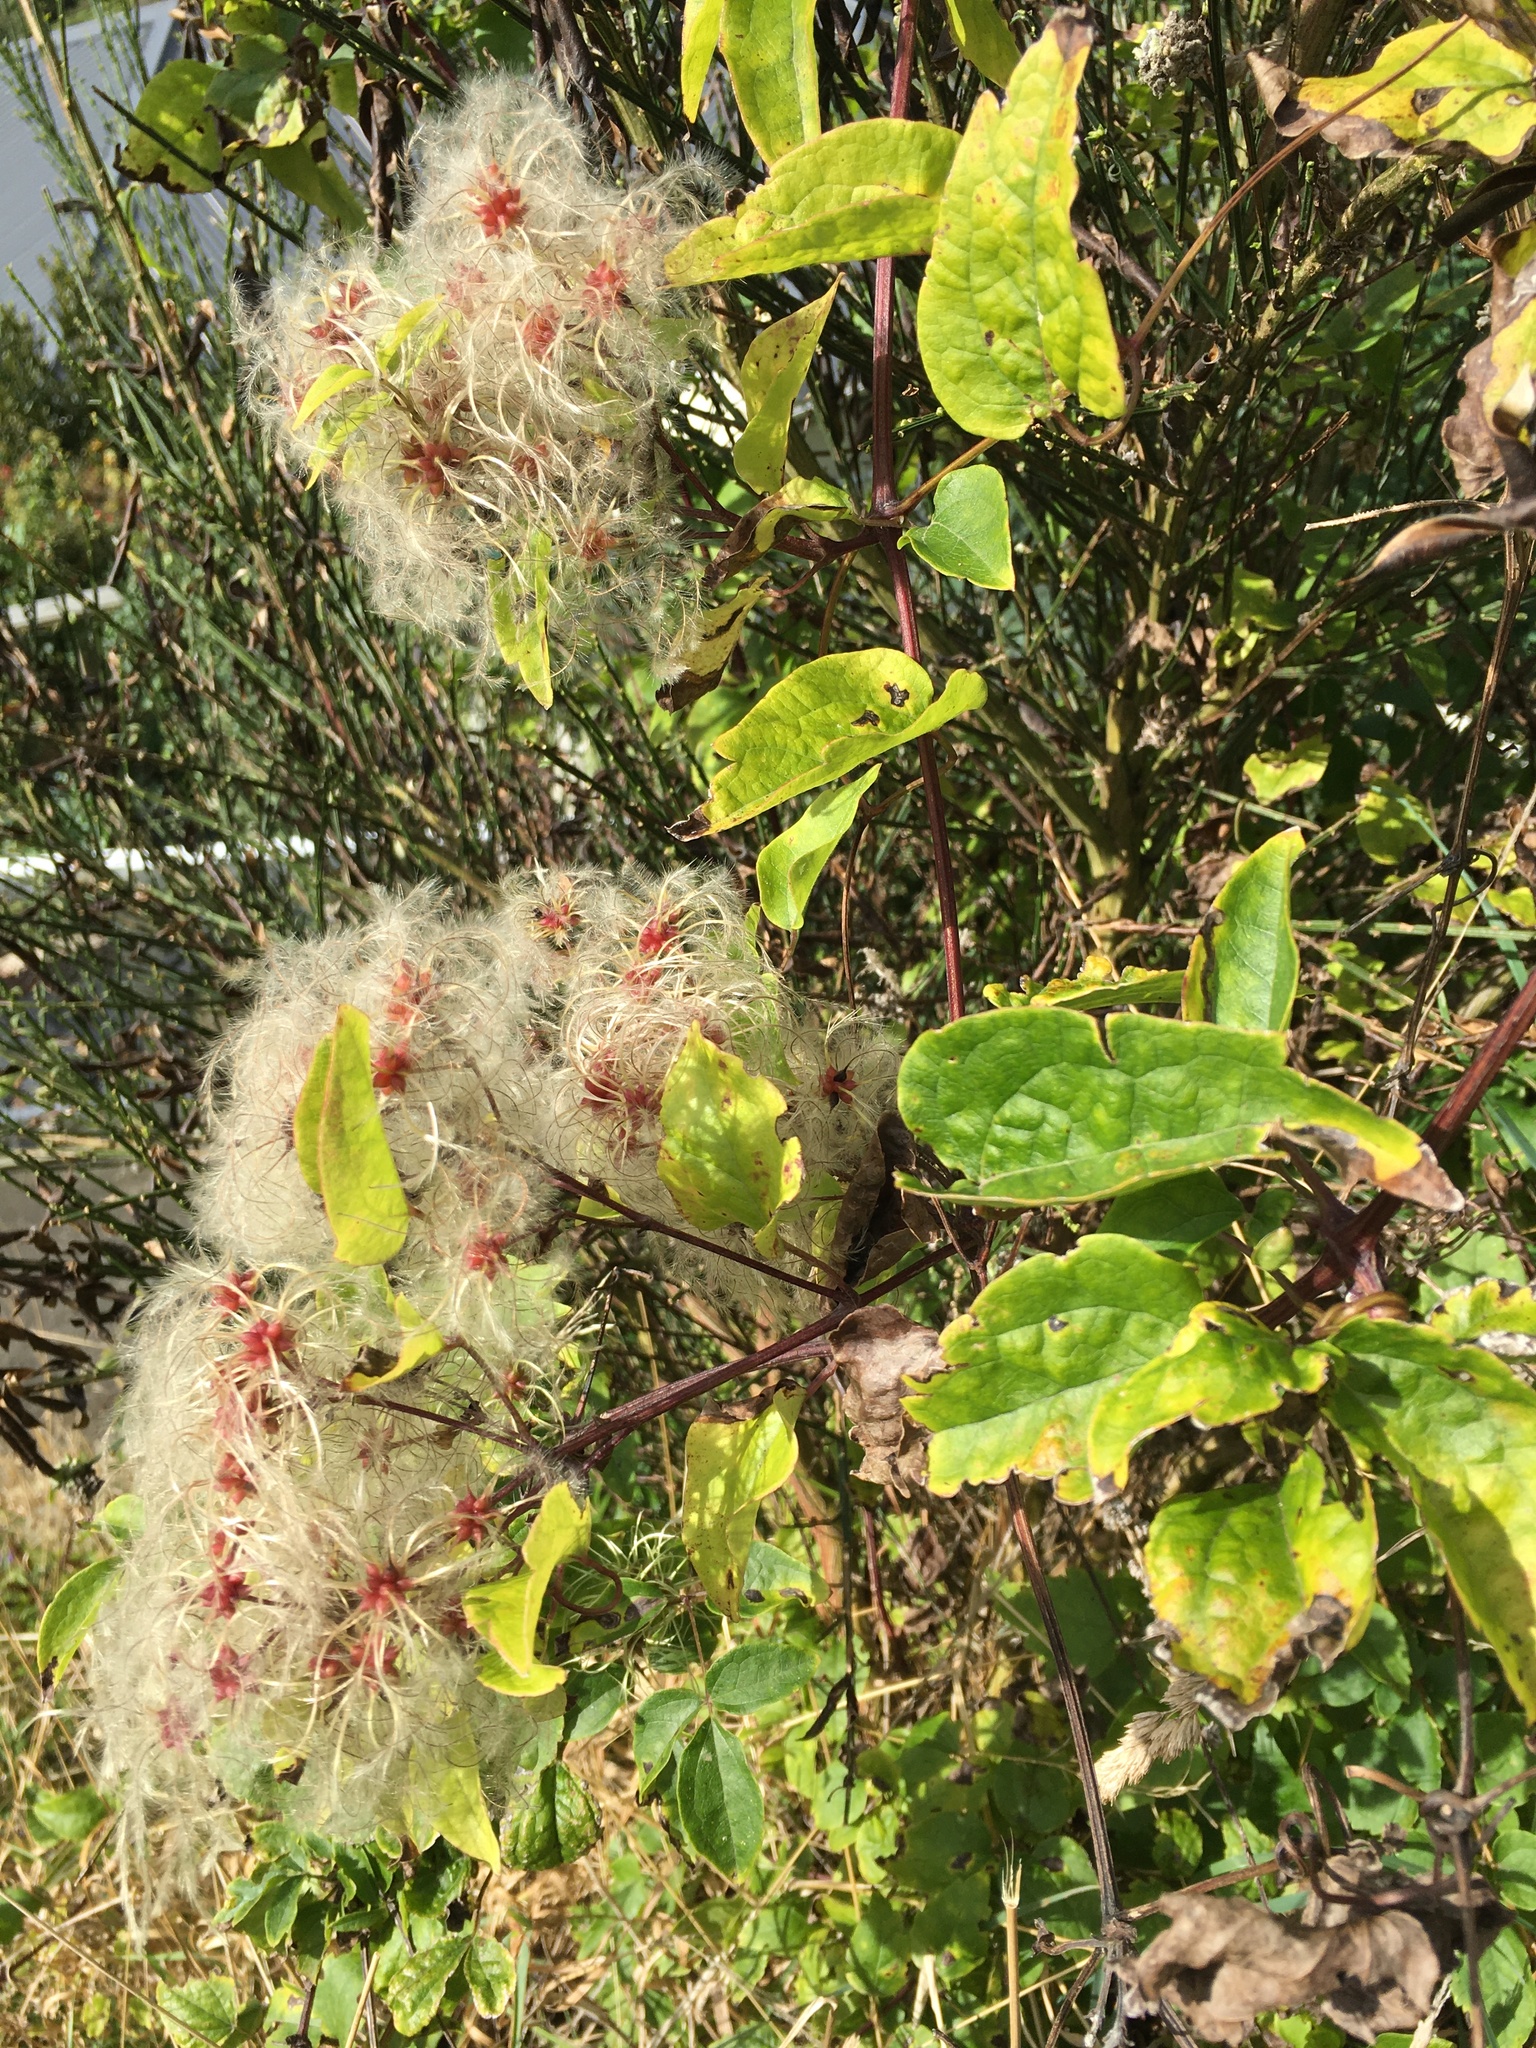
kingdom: Plantae
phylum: Tracheophyta
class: Magnoliopsida
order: Ranunculales
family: Ranunculaceae
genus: Clematis
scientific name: Clematis vitalba
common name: Evergreen clematis
